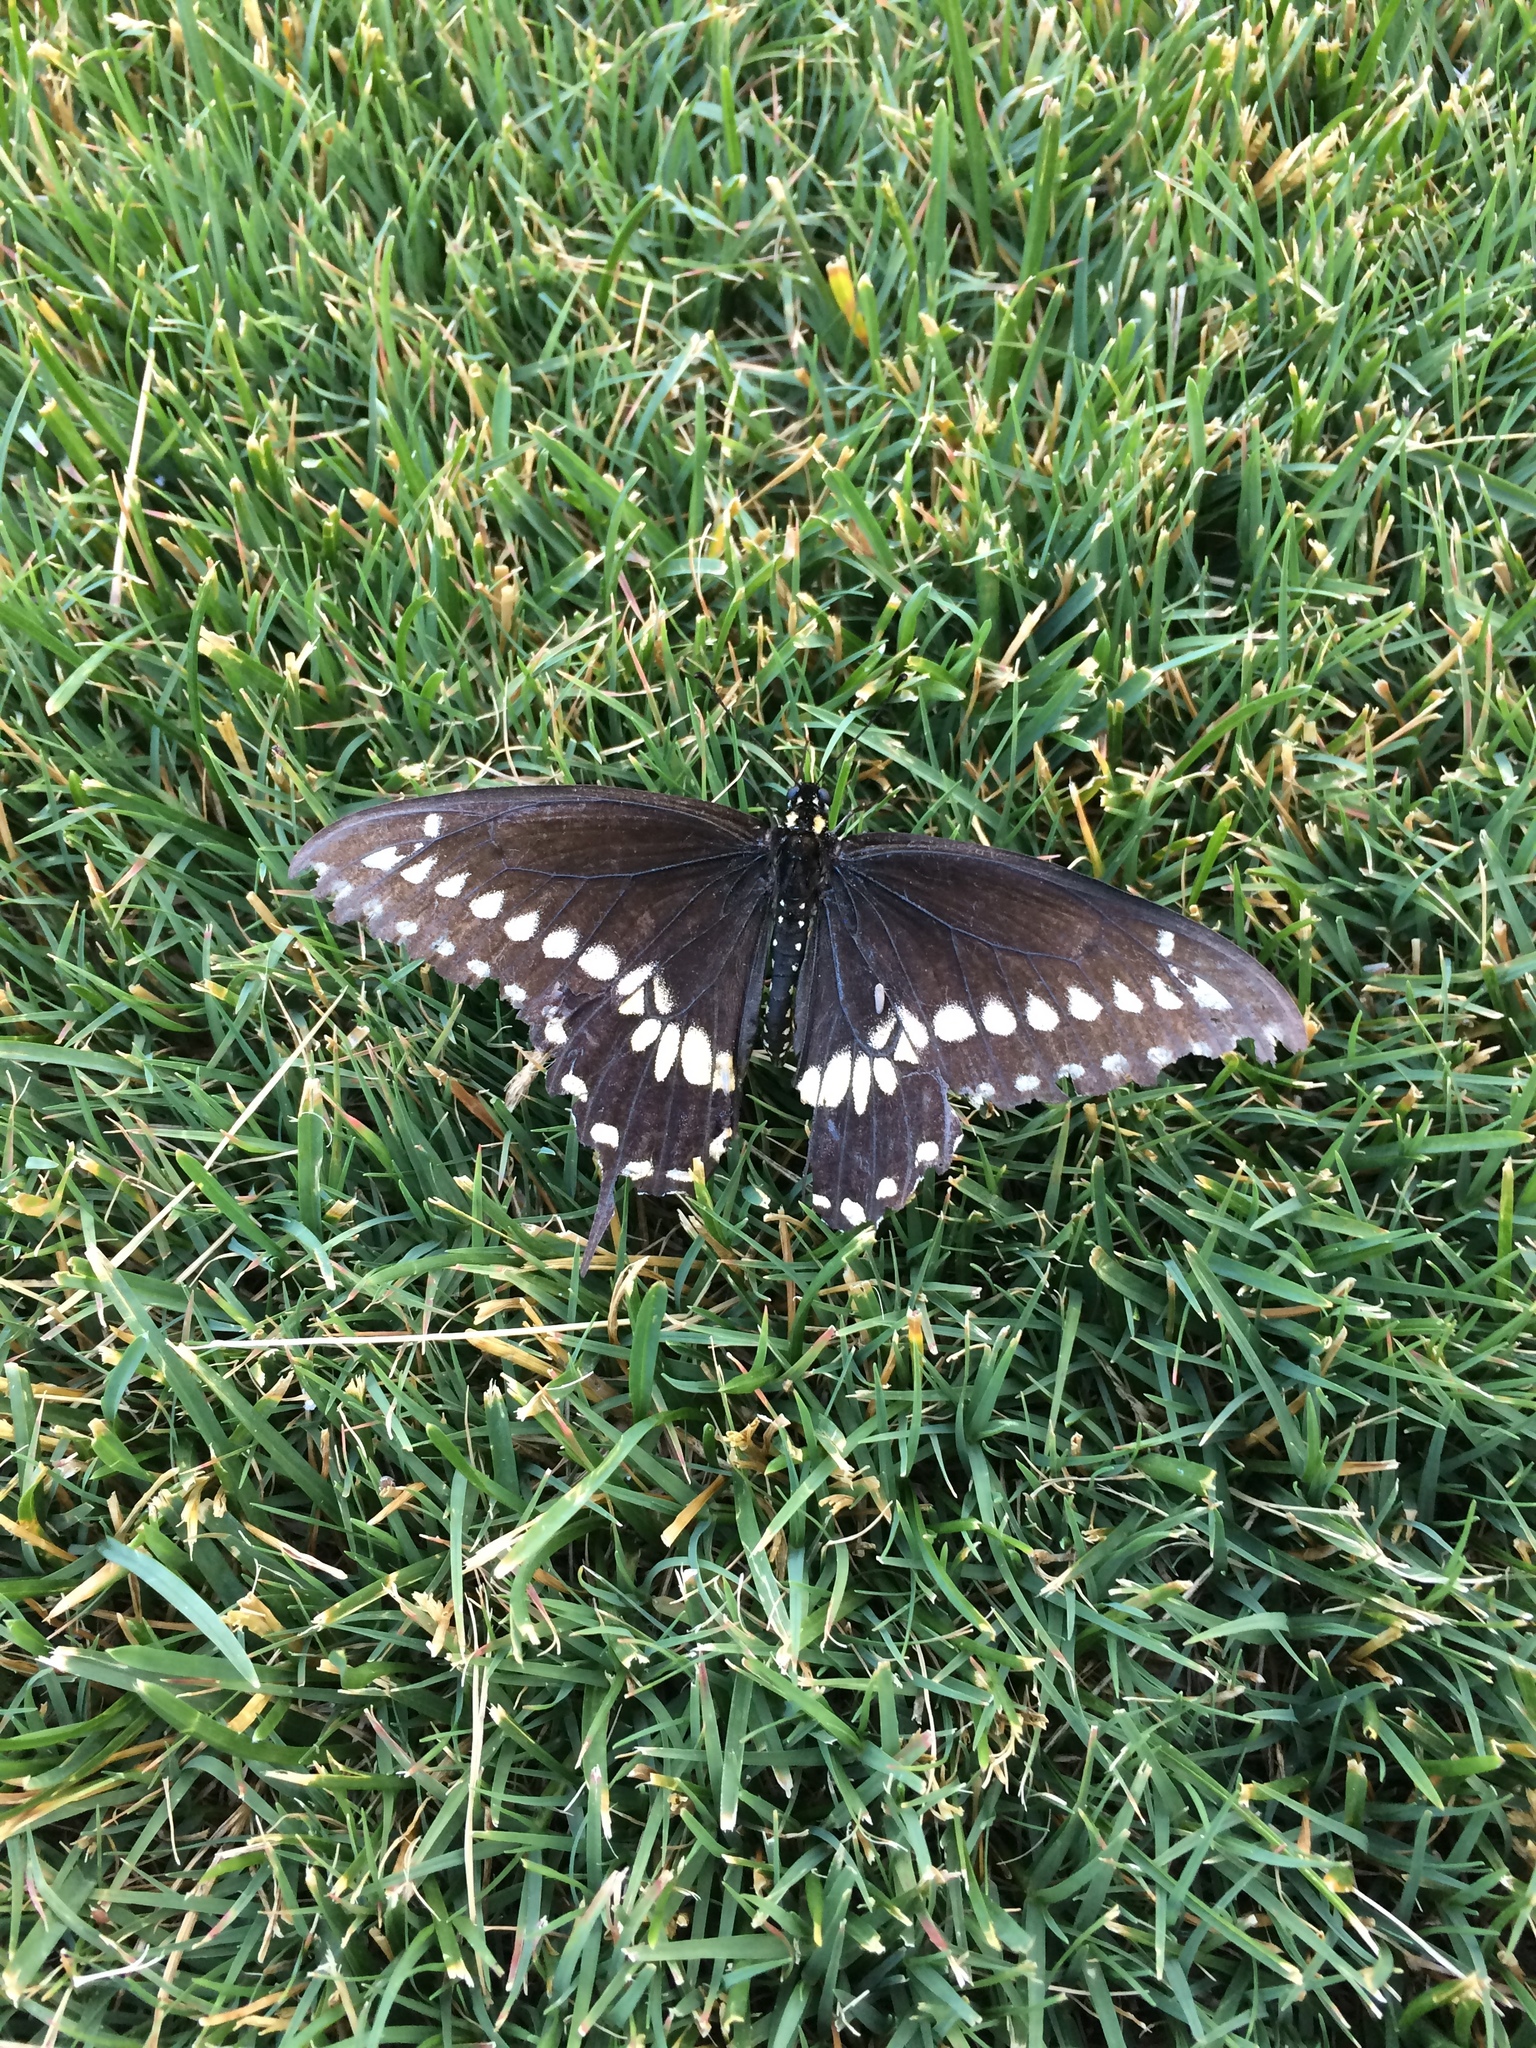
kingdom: Animalia
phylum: Arthropoda
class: Insecta
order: Lepidoptera
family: Papilionidae
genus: Papilio
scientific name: Papilio polyxenes
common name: Black swallowtail
